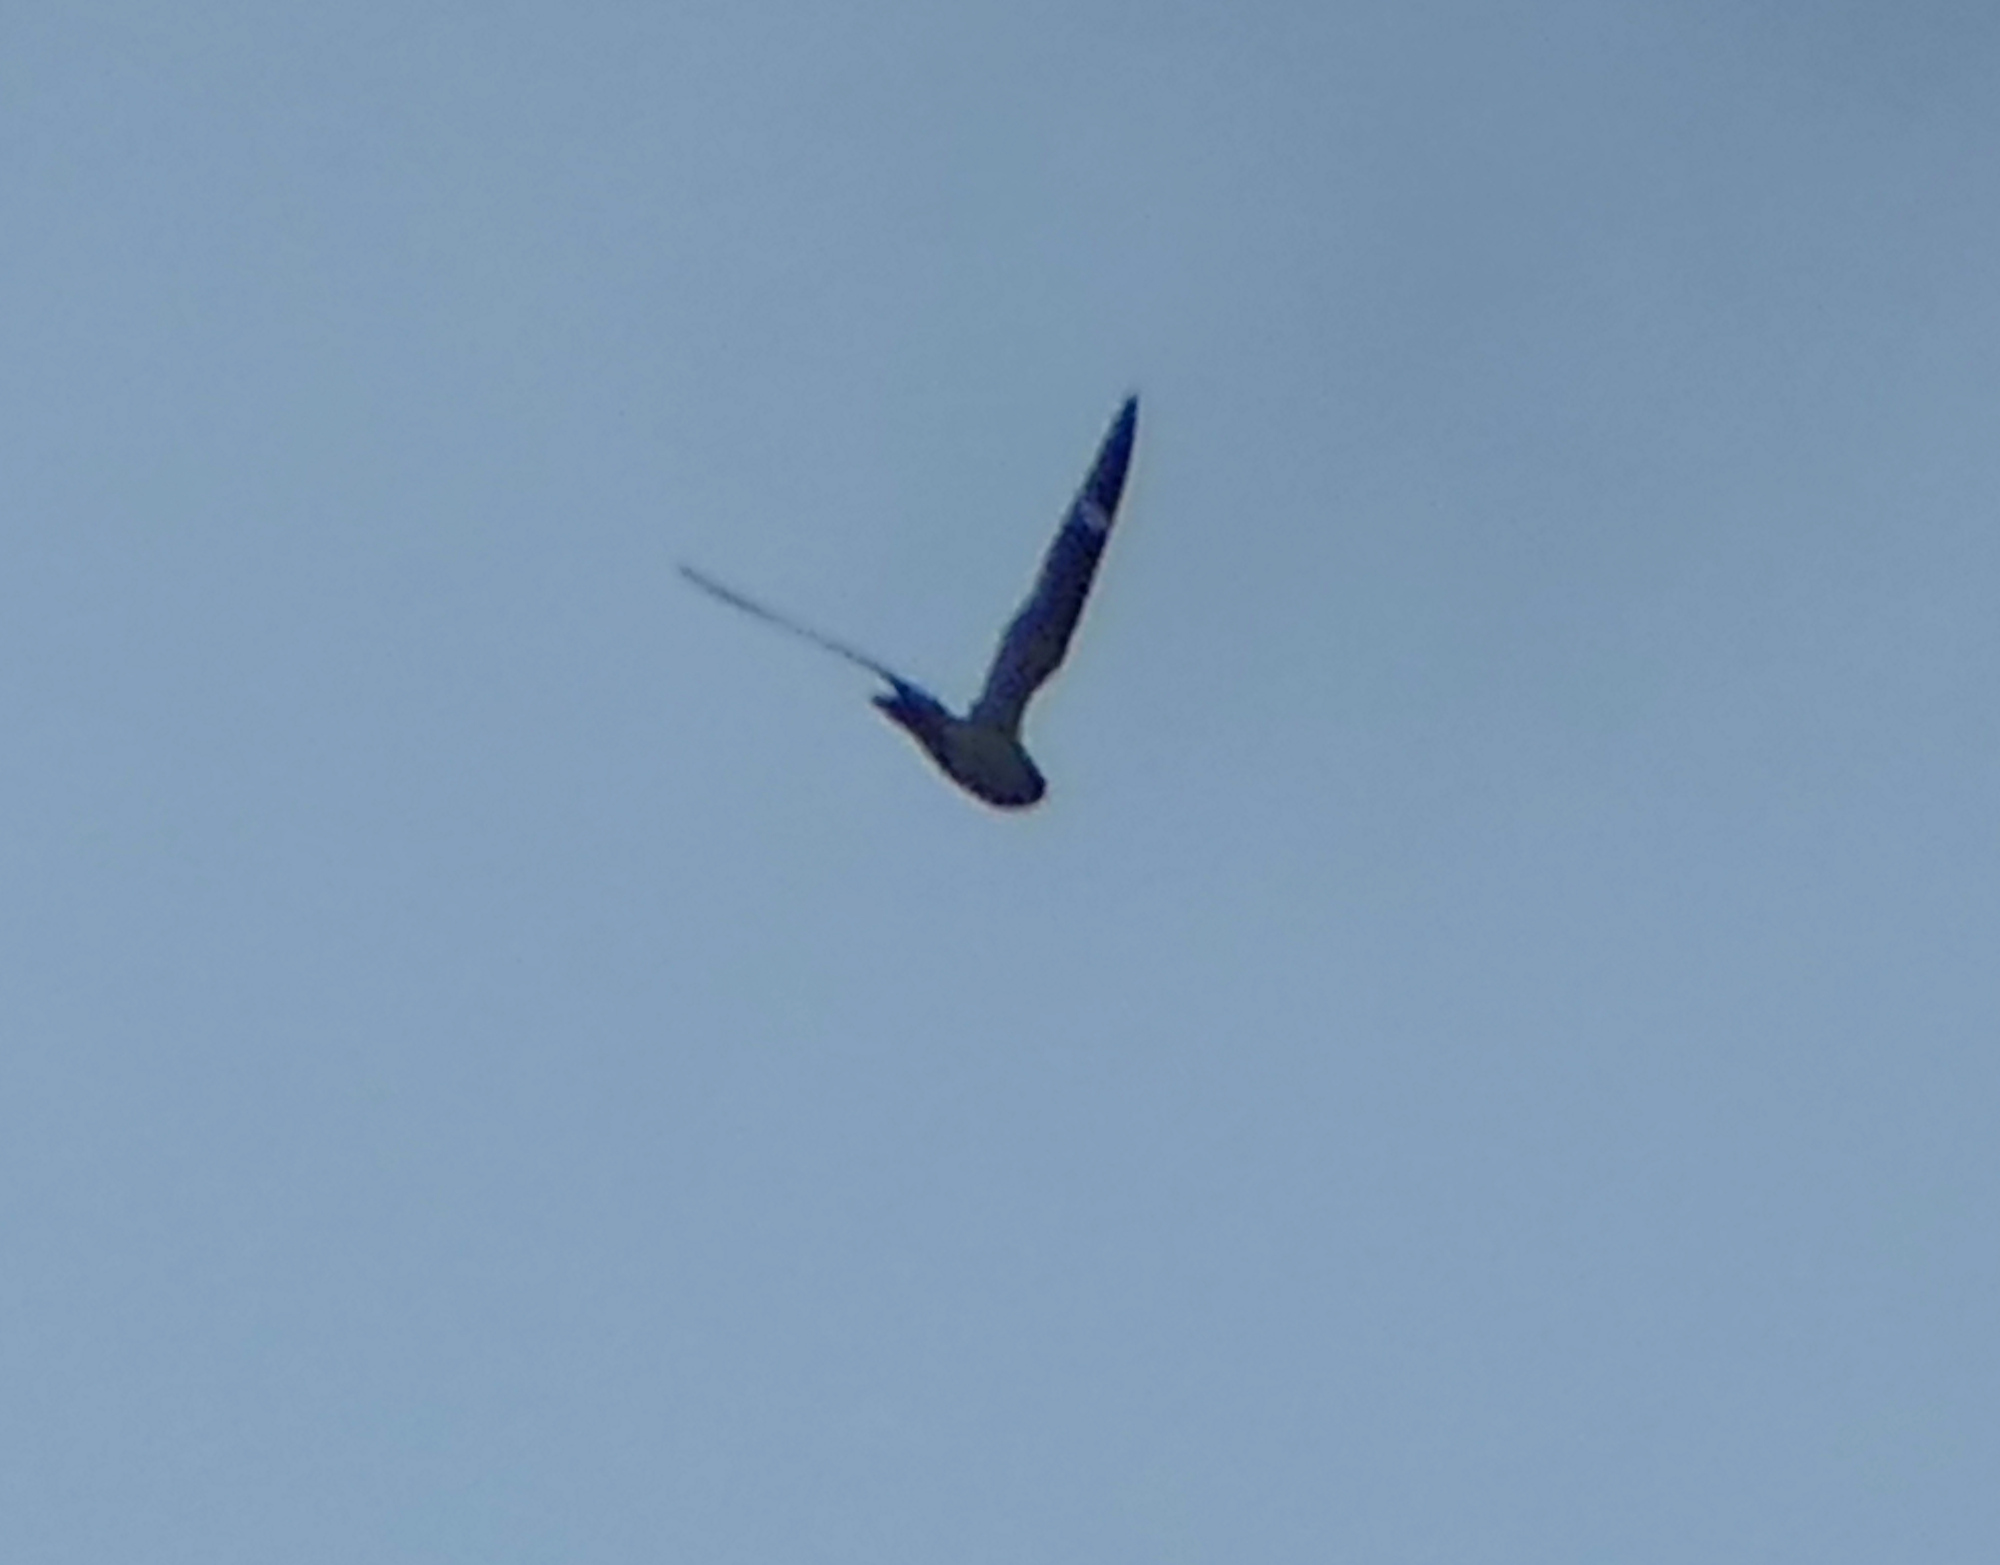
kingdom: Animalia
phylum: Chordata
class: Aves
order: Caprimulgiformes
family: Caprimulgidae
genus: Chordeiles
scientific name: Chordeiles minor
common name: Common nighthawk
